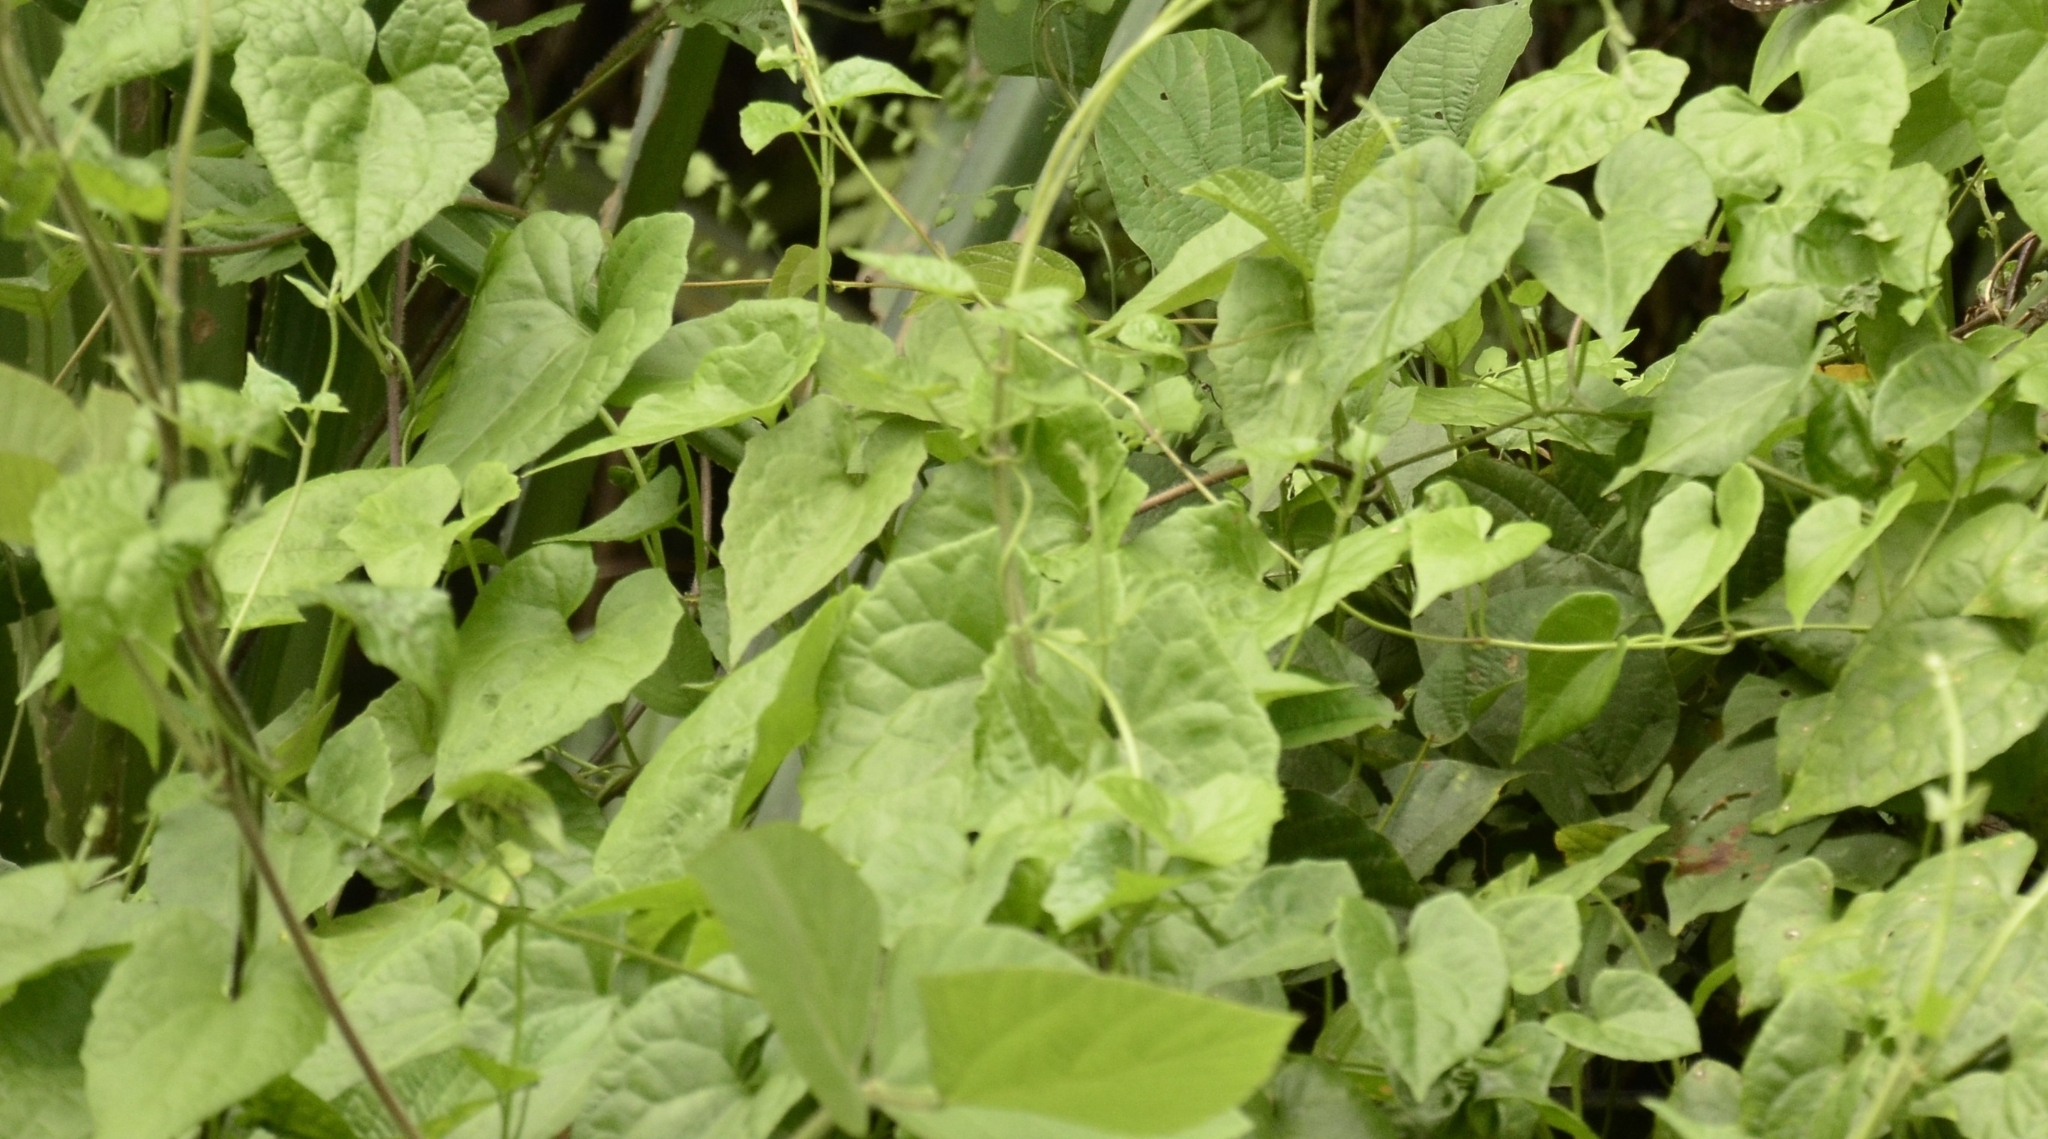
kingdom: Plantae
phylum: Tracheophyta
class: Magnoliopsida
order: Asterales
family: Asteraceae
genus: Mikania
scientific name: Mikania micrantha
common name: Mile-a-minute
